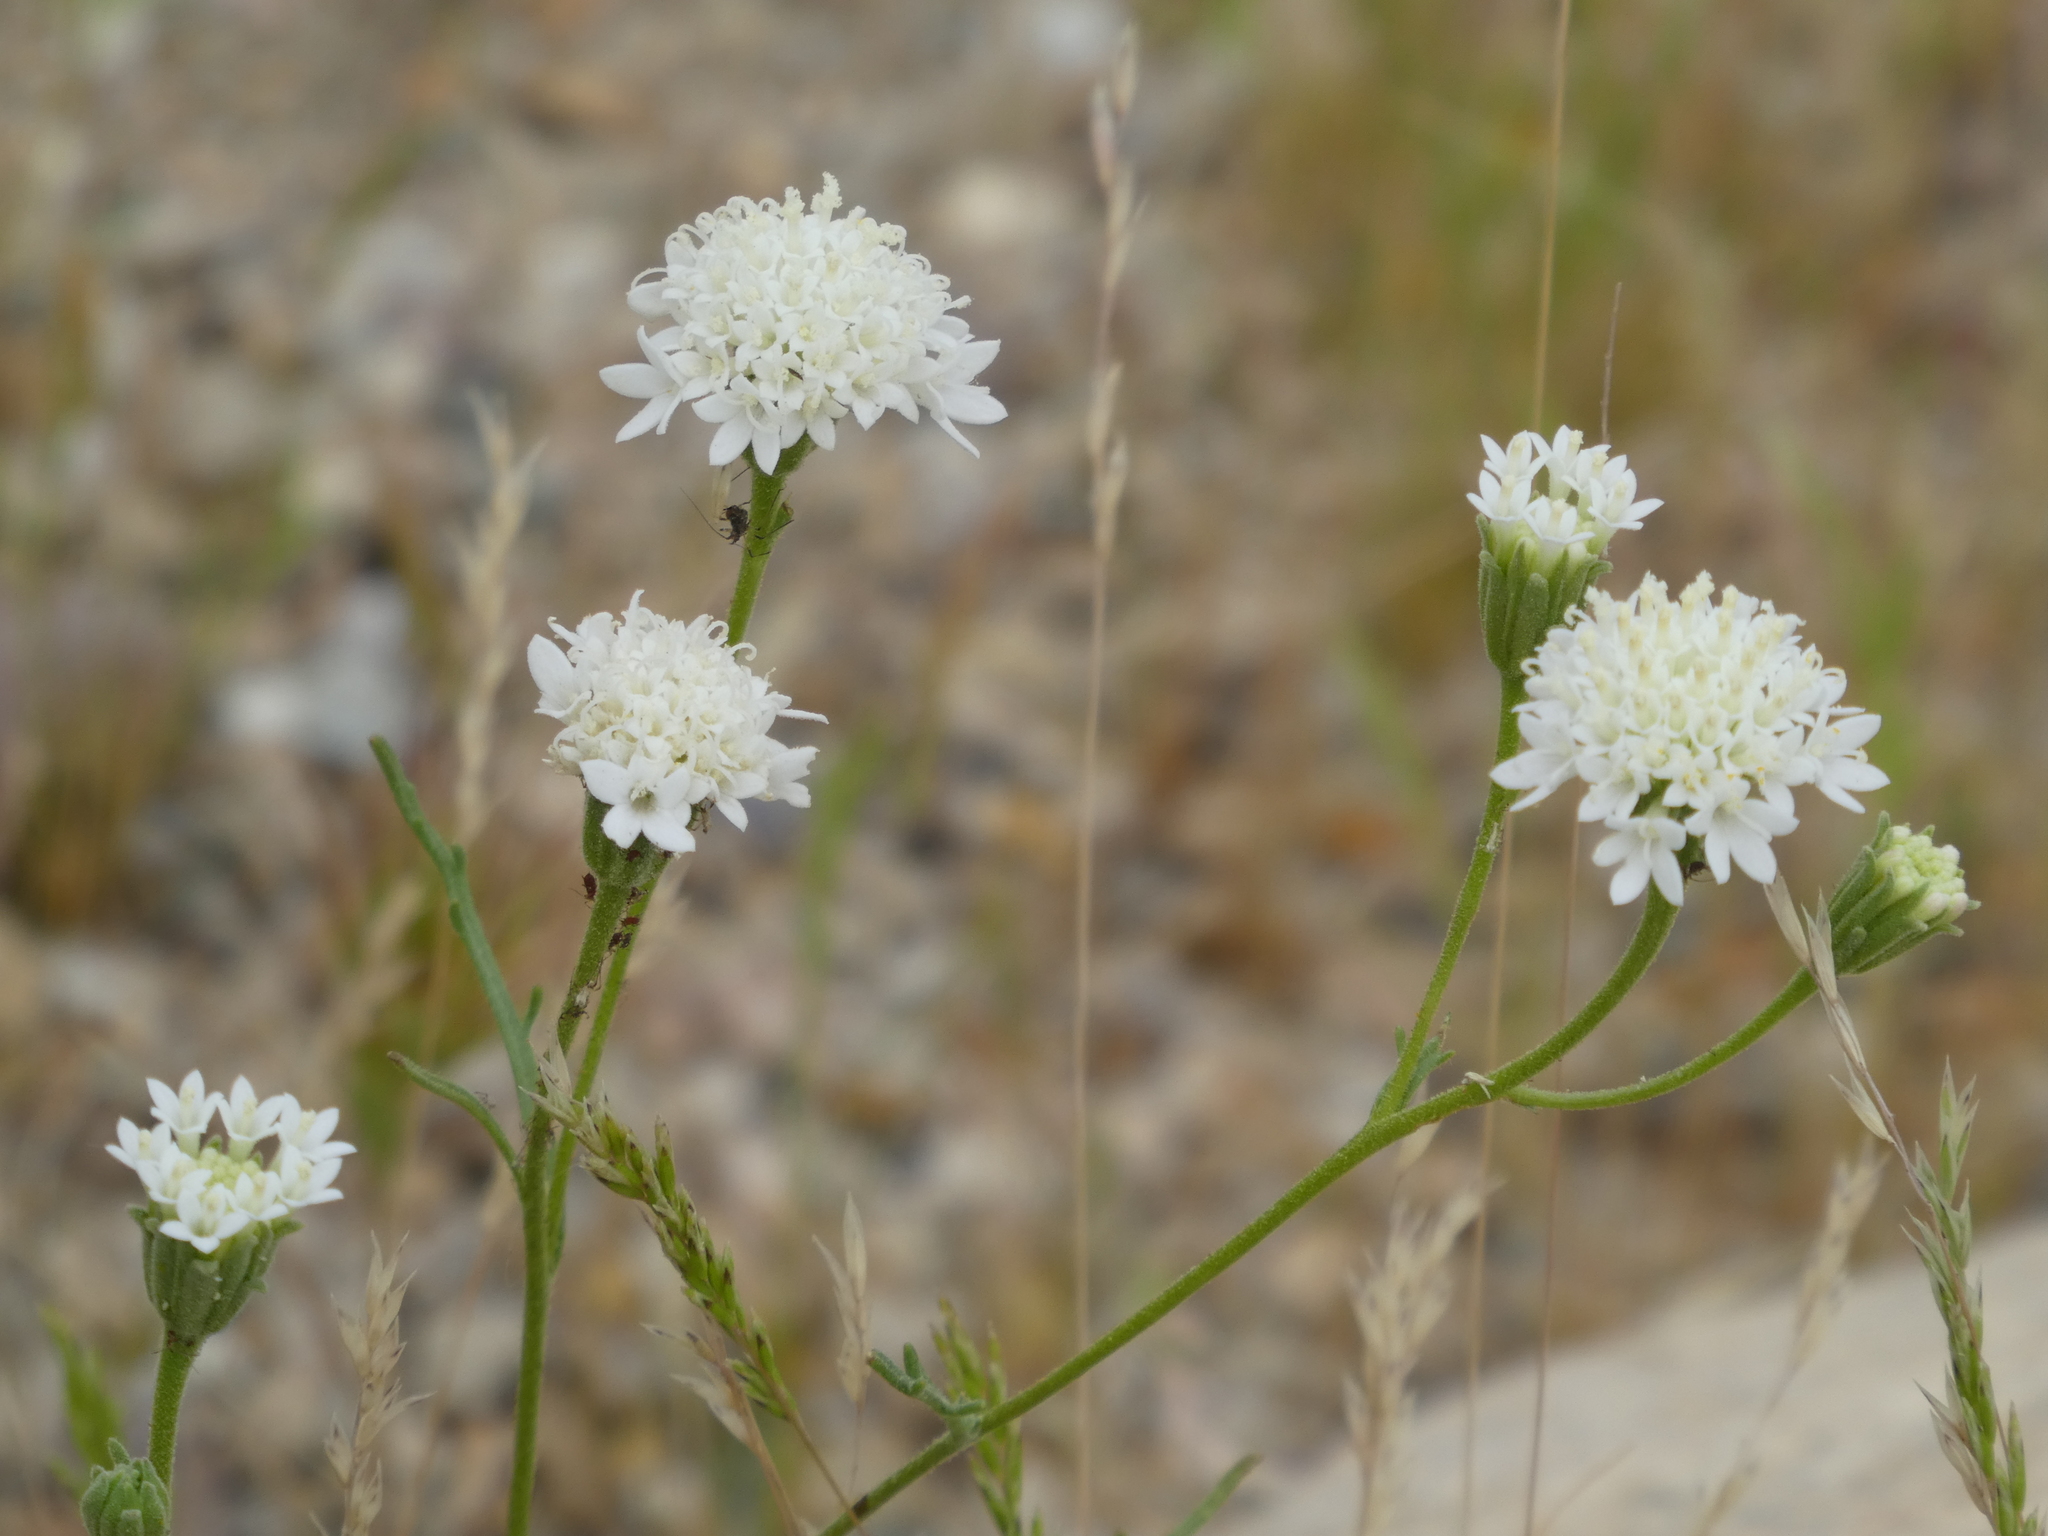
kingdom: Plantae
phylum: Tracheophyta
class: Magnoliopsida
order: Asterales
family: Asteraceae
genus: Chaenactis
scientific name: Chaenactis stevioides
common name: Desert pincushion
